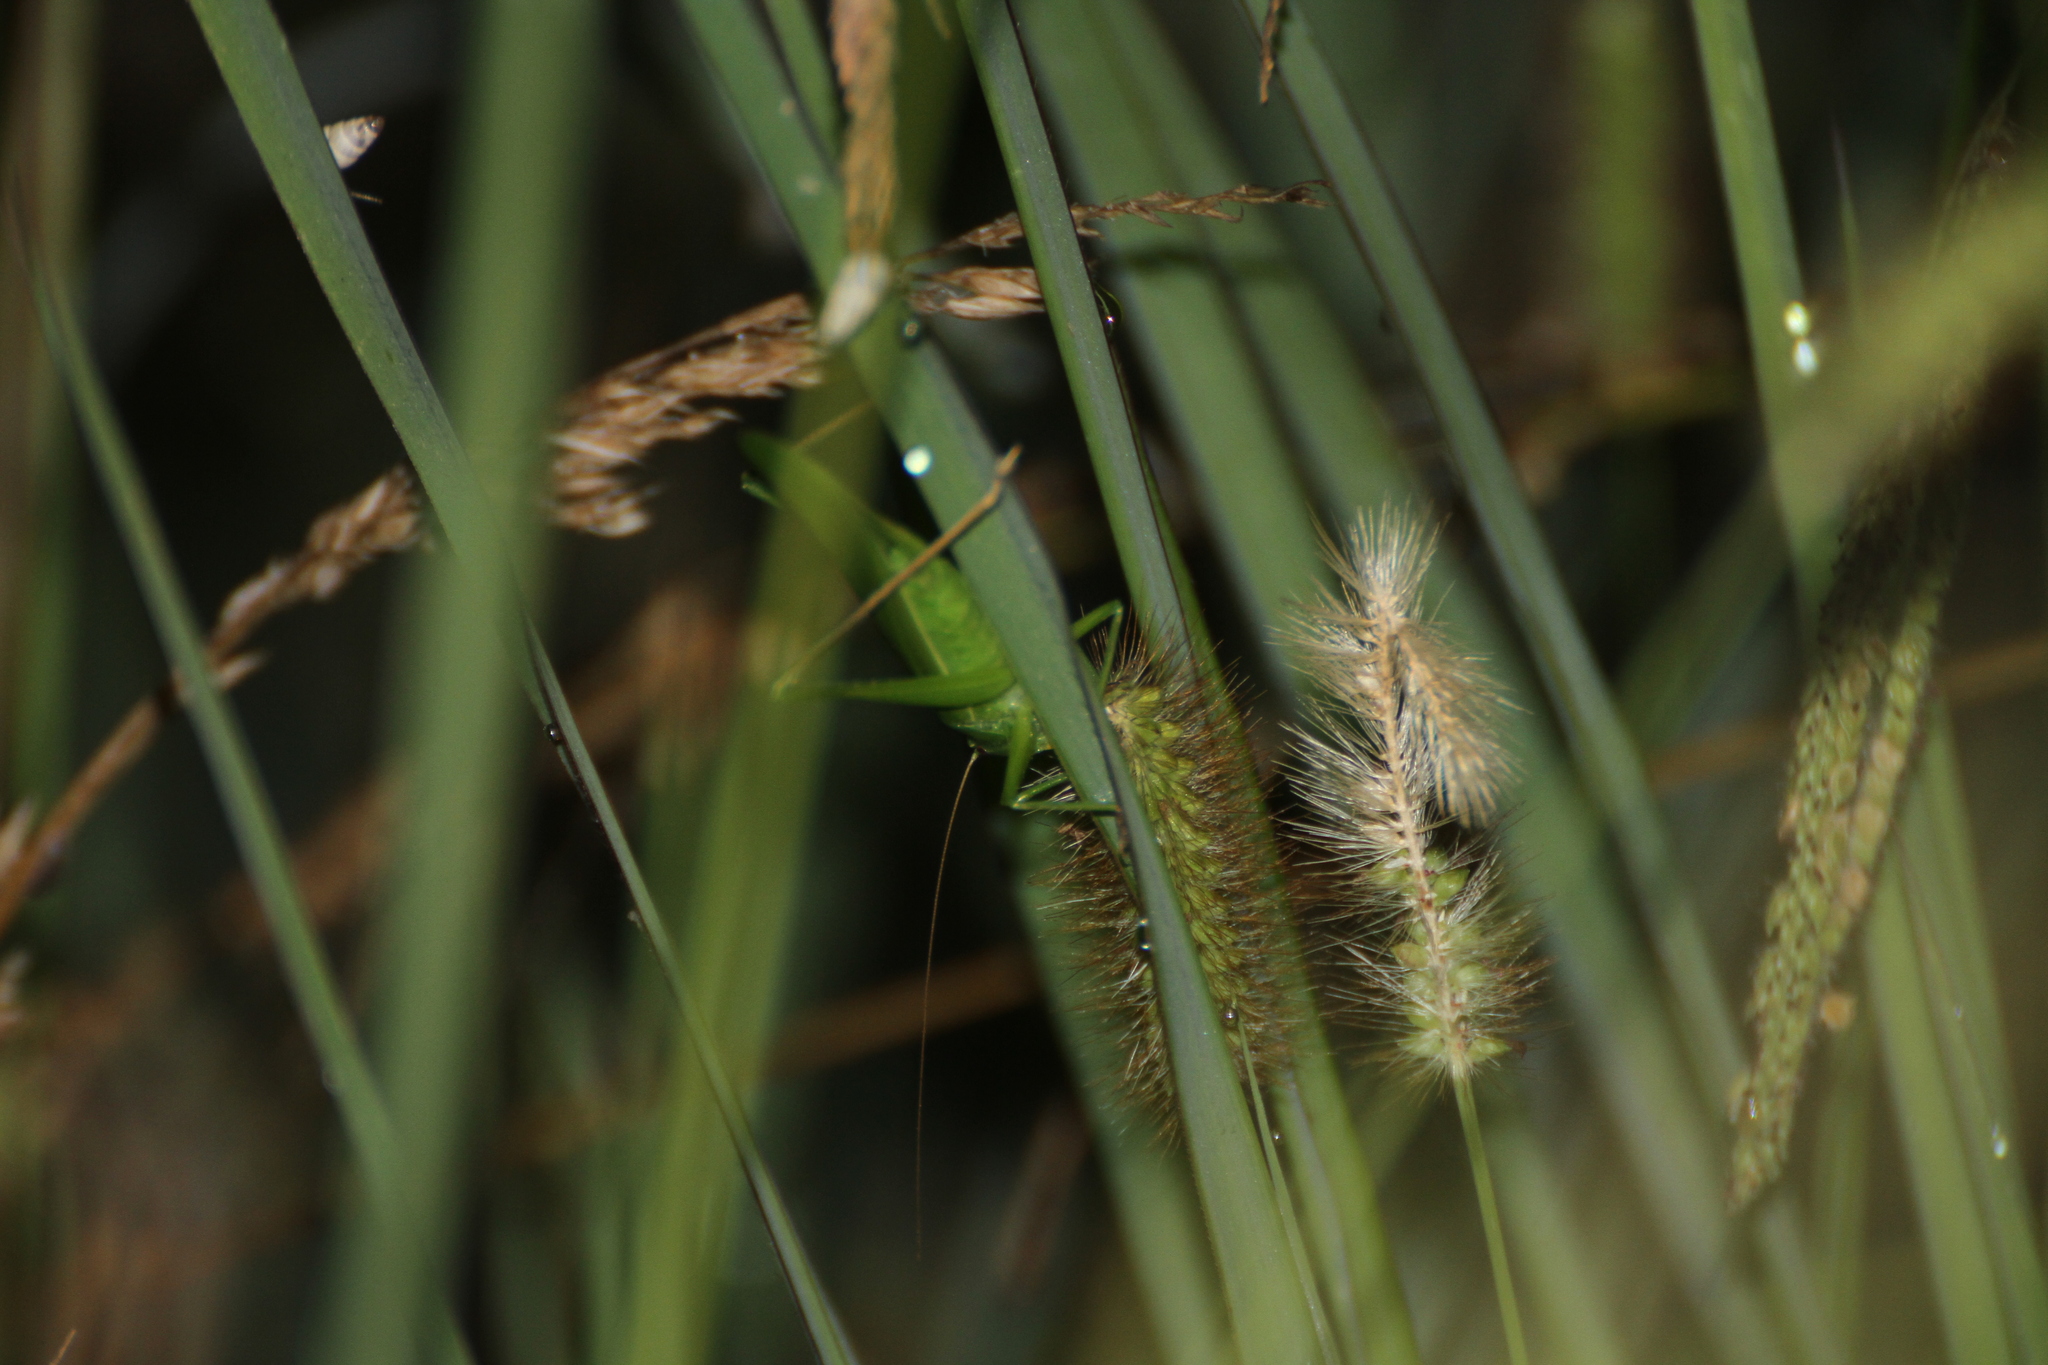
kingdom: Animalia
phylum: Arthropoda
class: Insecta
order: Orthoptera
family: Tettigoniidae
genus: Ruspolia
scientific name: Ruspolia nitidula
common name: Large conehead
